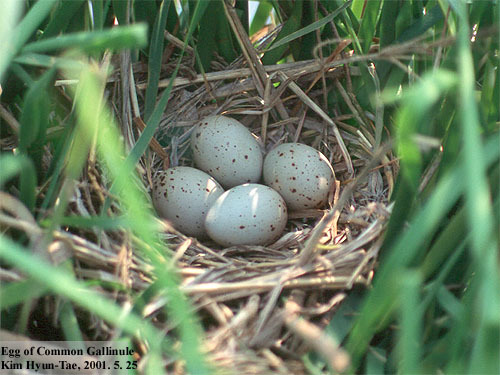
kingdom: Animalia
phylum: Chordata
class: Aves
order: Gruiformes
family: Rallidae
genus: Gallinula
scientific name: Gallinula chloropus
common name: Common moorhen
